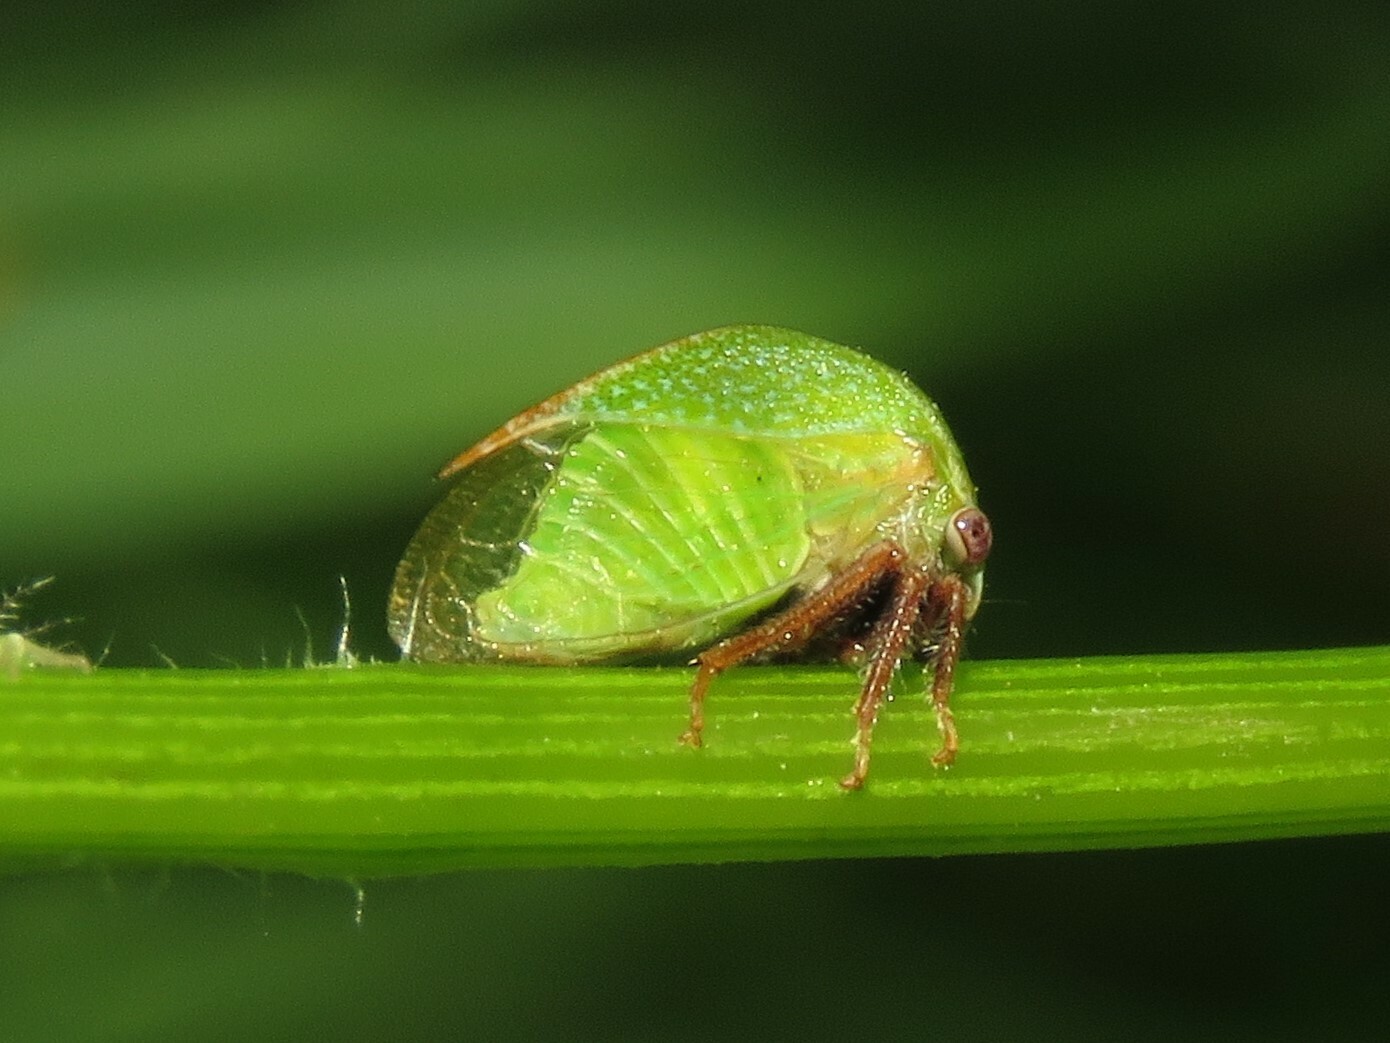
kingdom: Animalia
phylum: Arthropoda
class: Insecta
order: Hemiptera
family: Membracidae
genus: Stictocephala
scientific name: Stictocephala lutea
